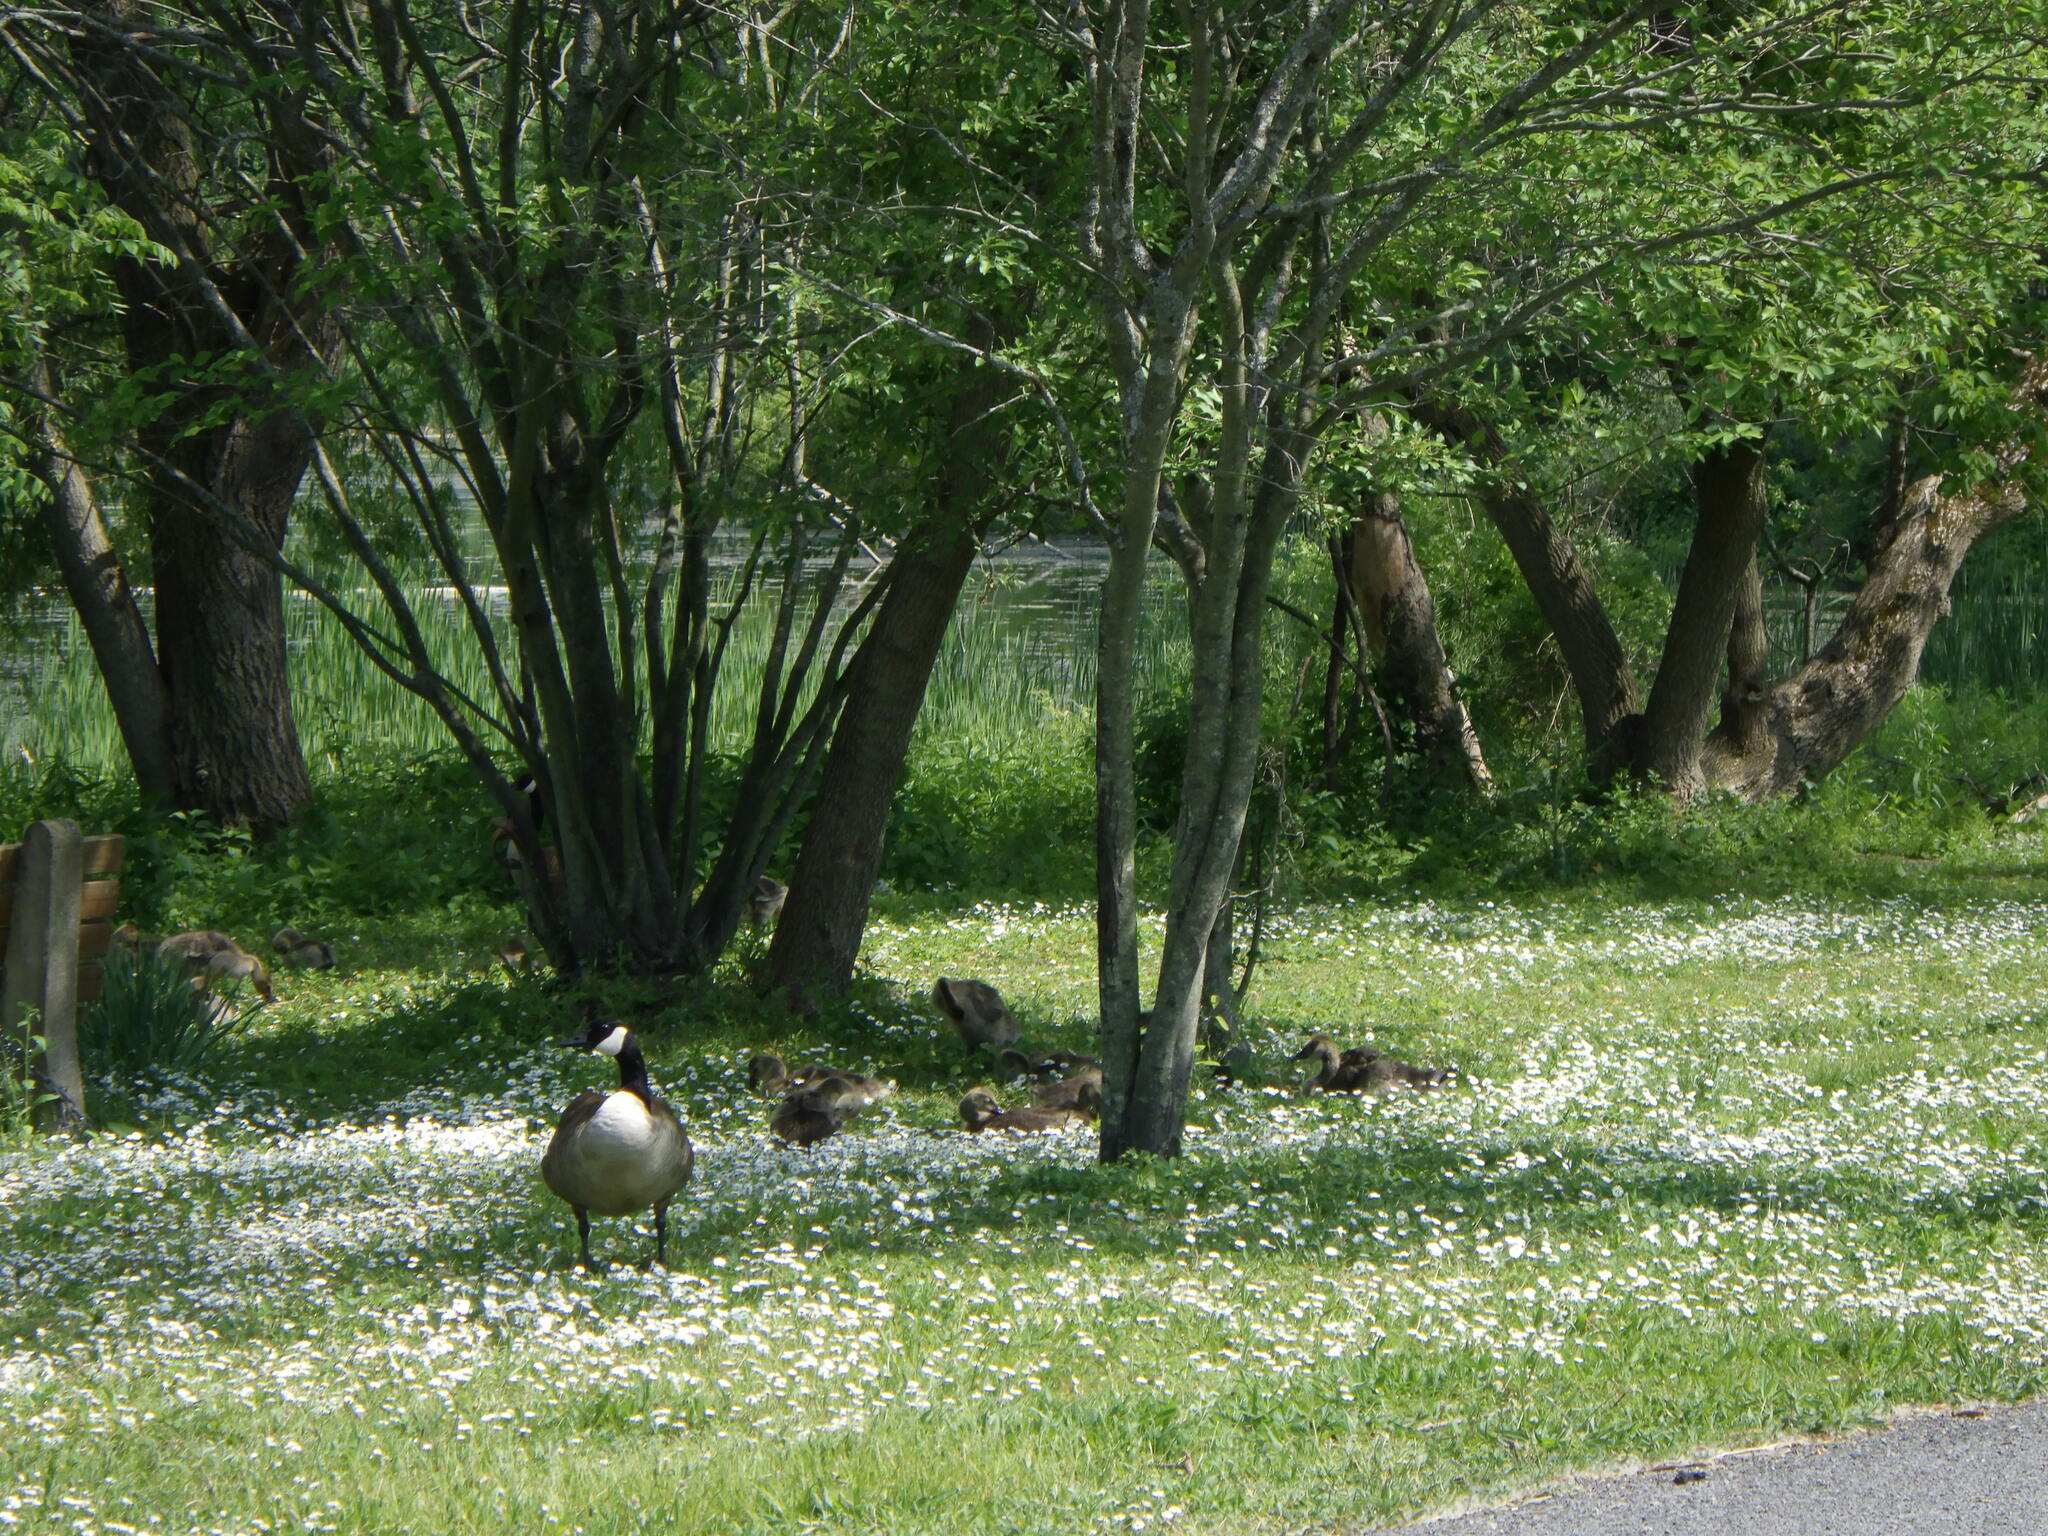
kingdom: Animalia
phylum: Chordata
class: Aves
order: Anseriformes
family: Anatidae
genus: Branta
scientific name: Branta canadensis
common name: Canada goose
